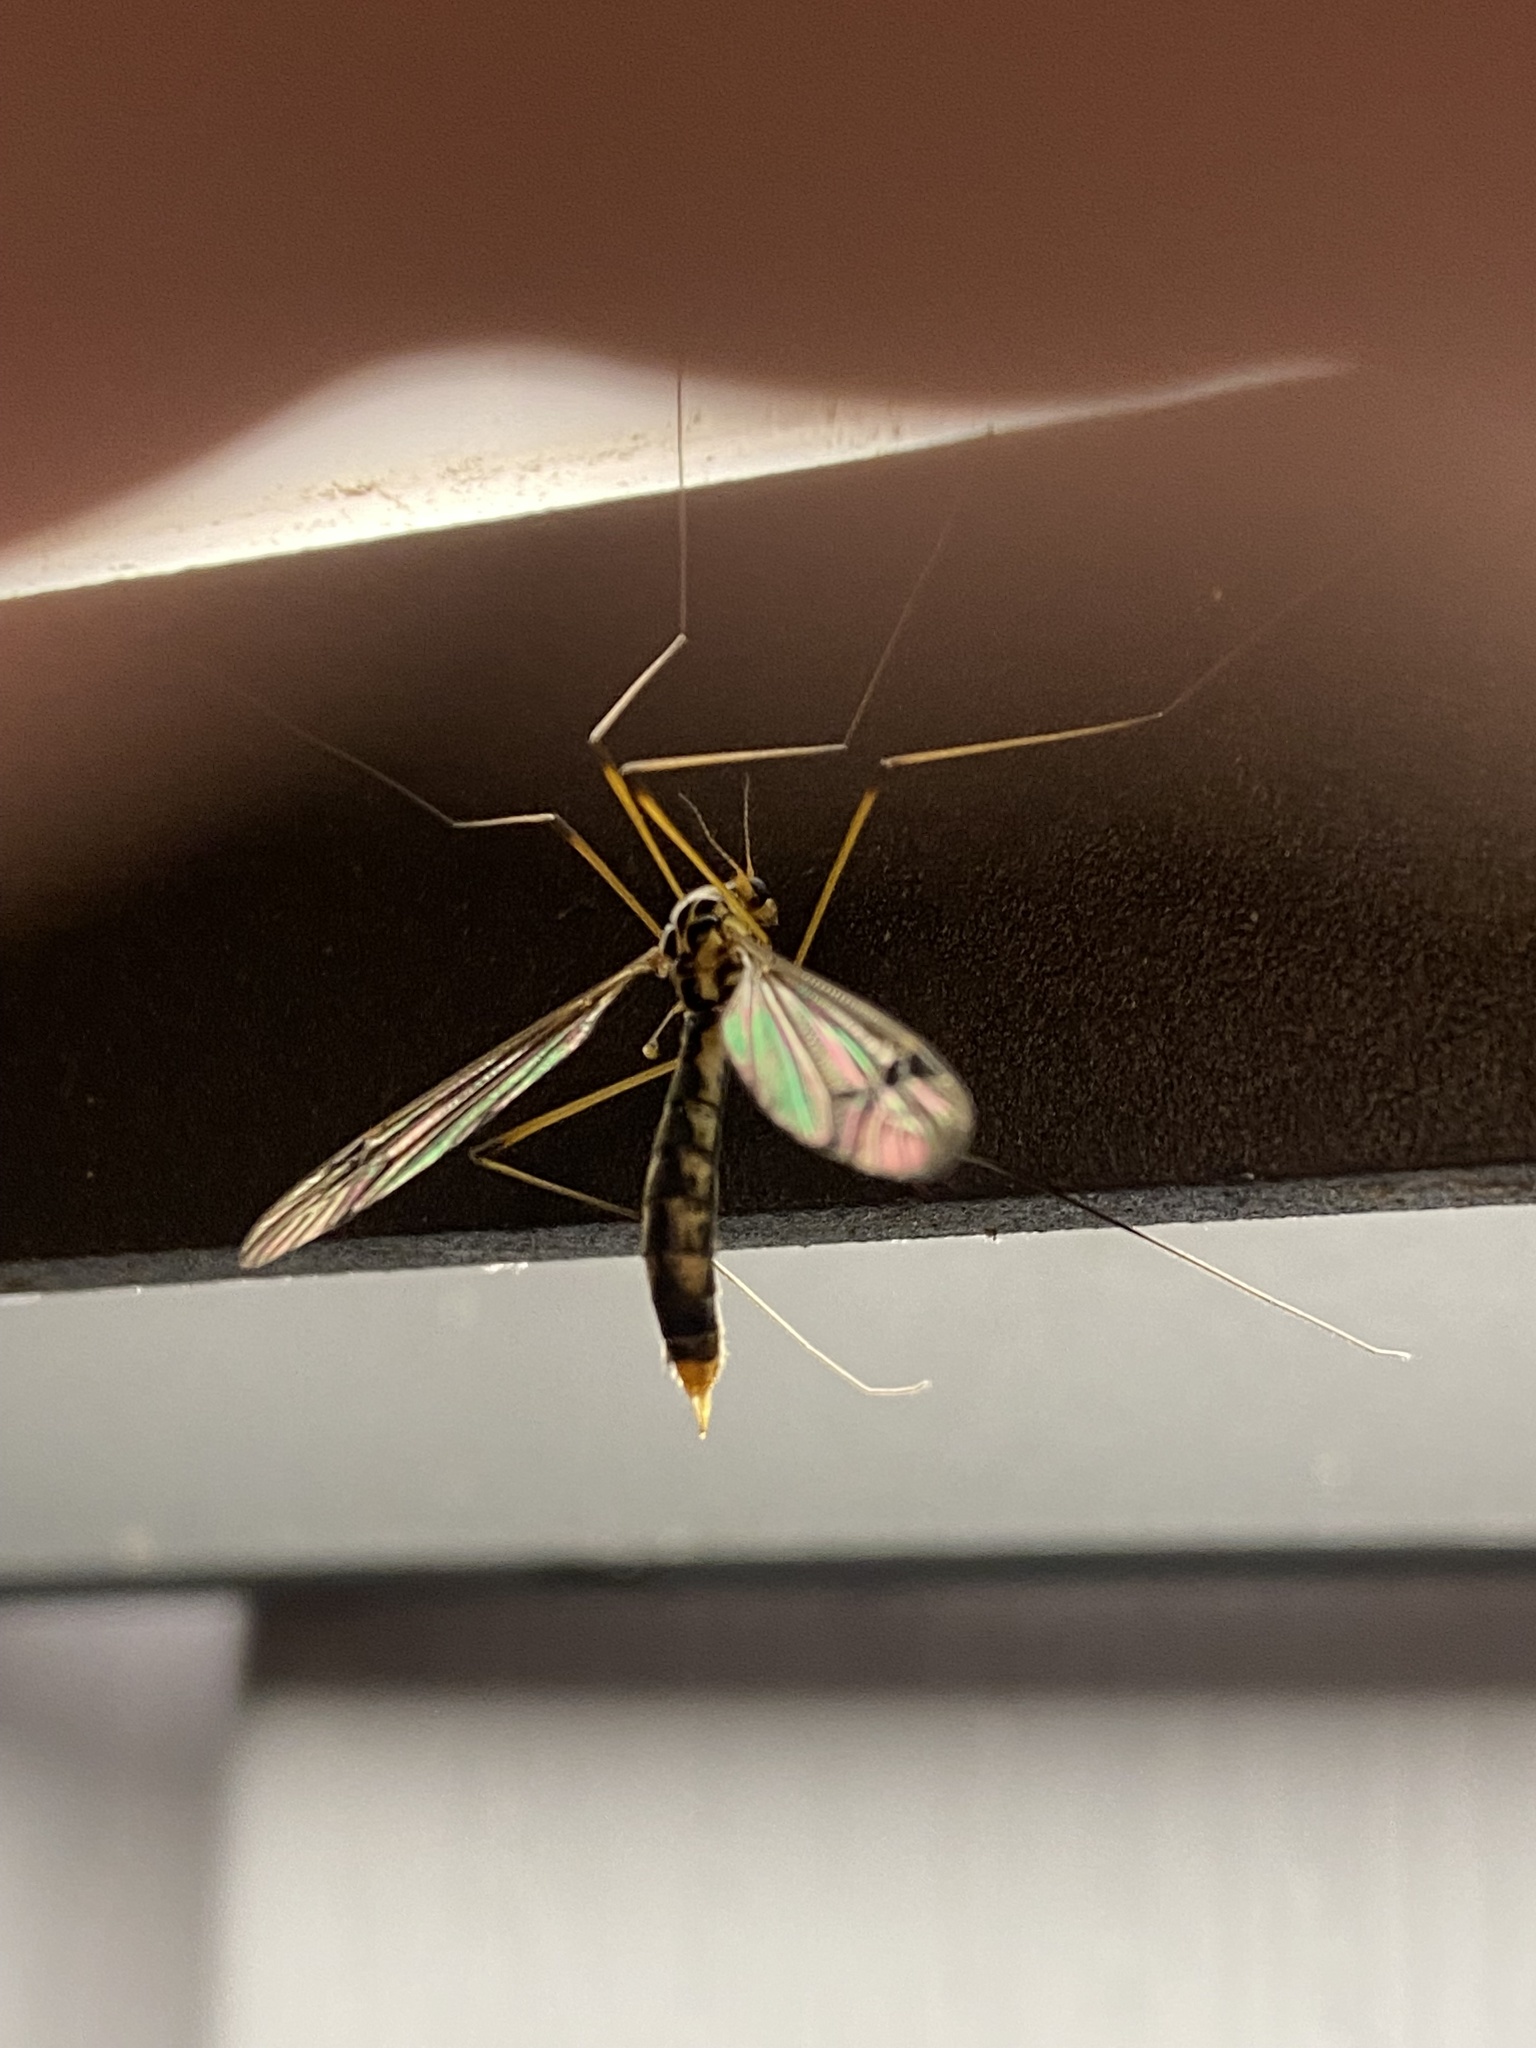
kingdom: Animalia
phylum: Arthropoda
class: Insecta
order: Diptera
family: Tipulidae
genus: Nephrotoma
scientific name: Nephrotoma quadrifaria
